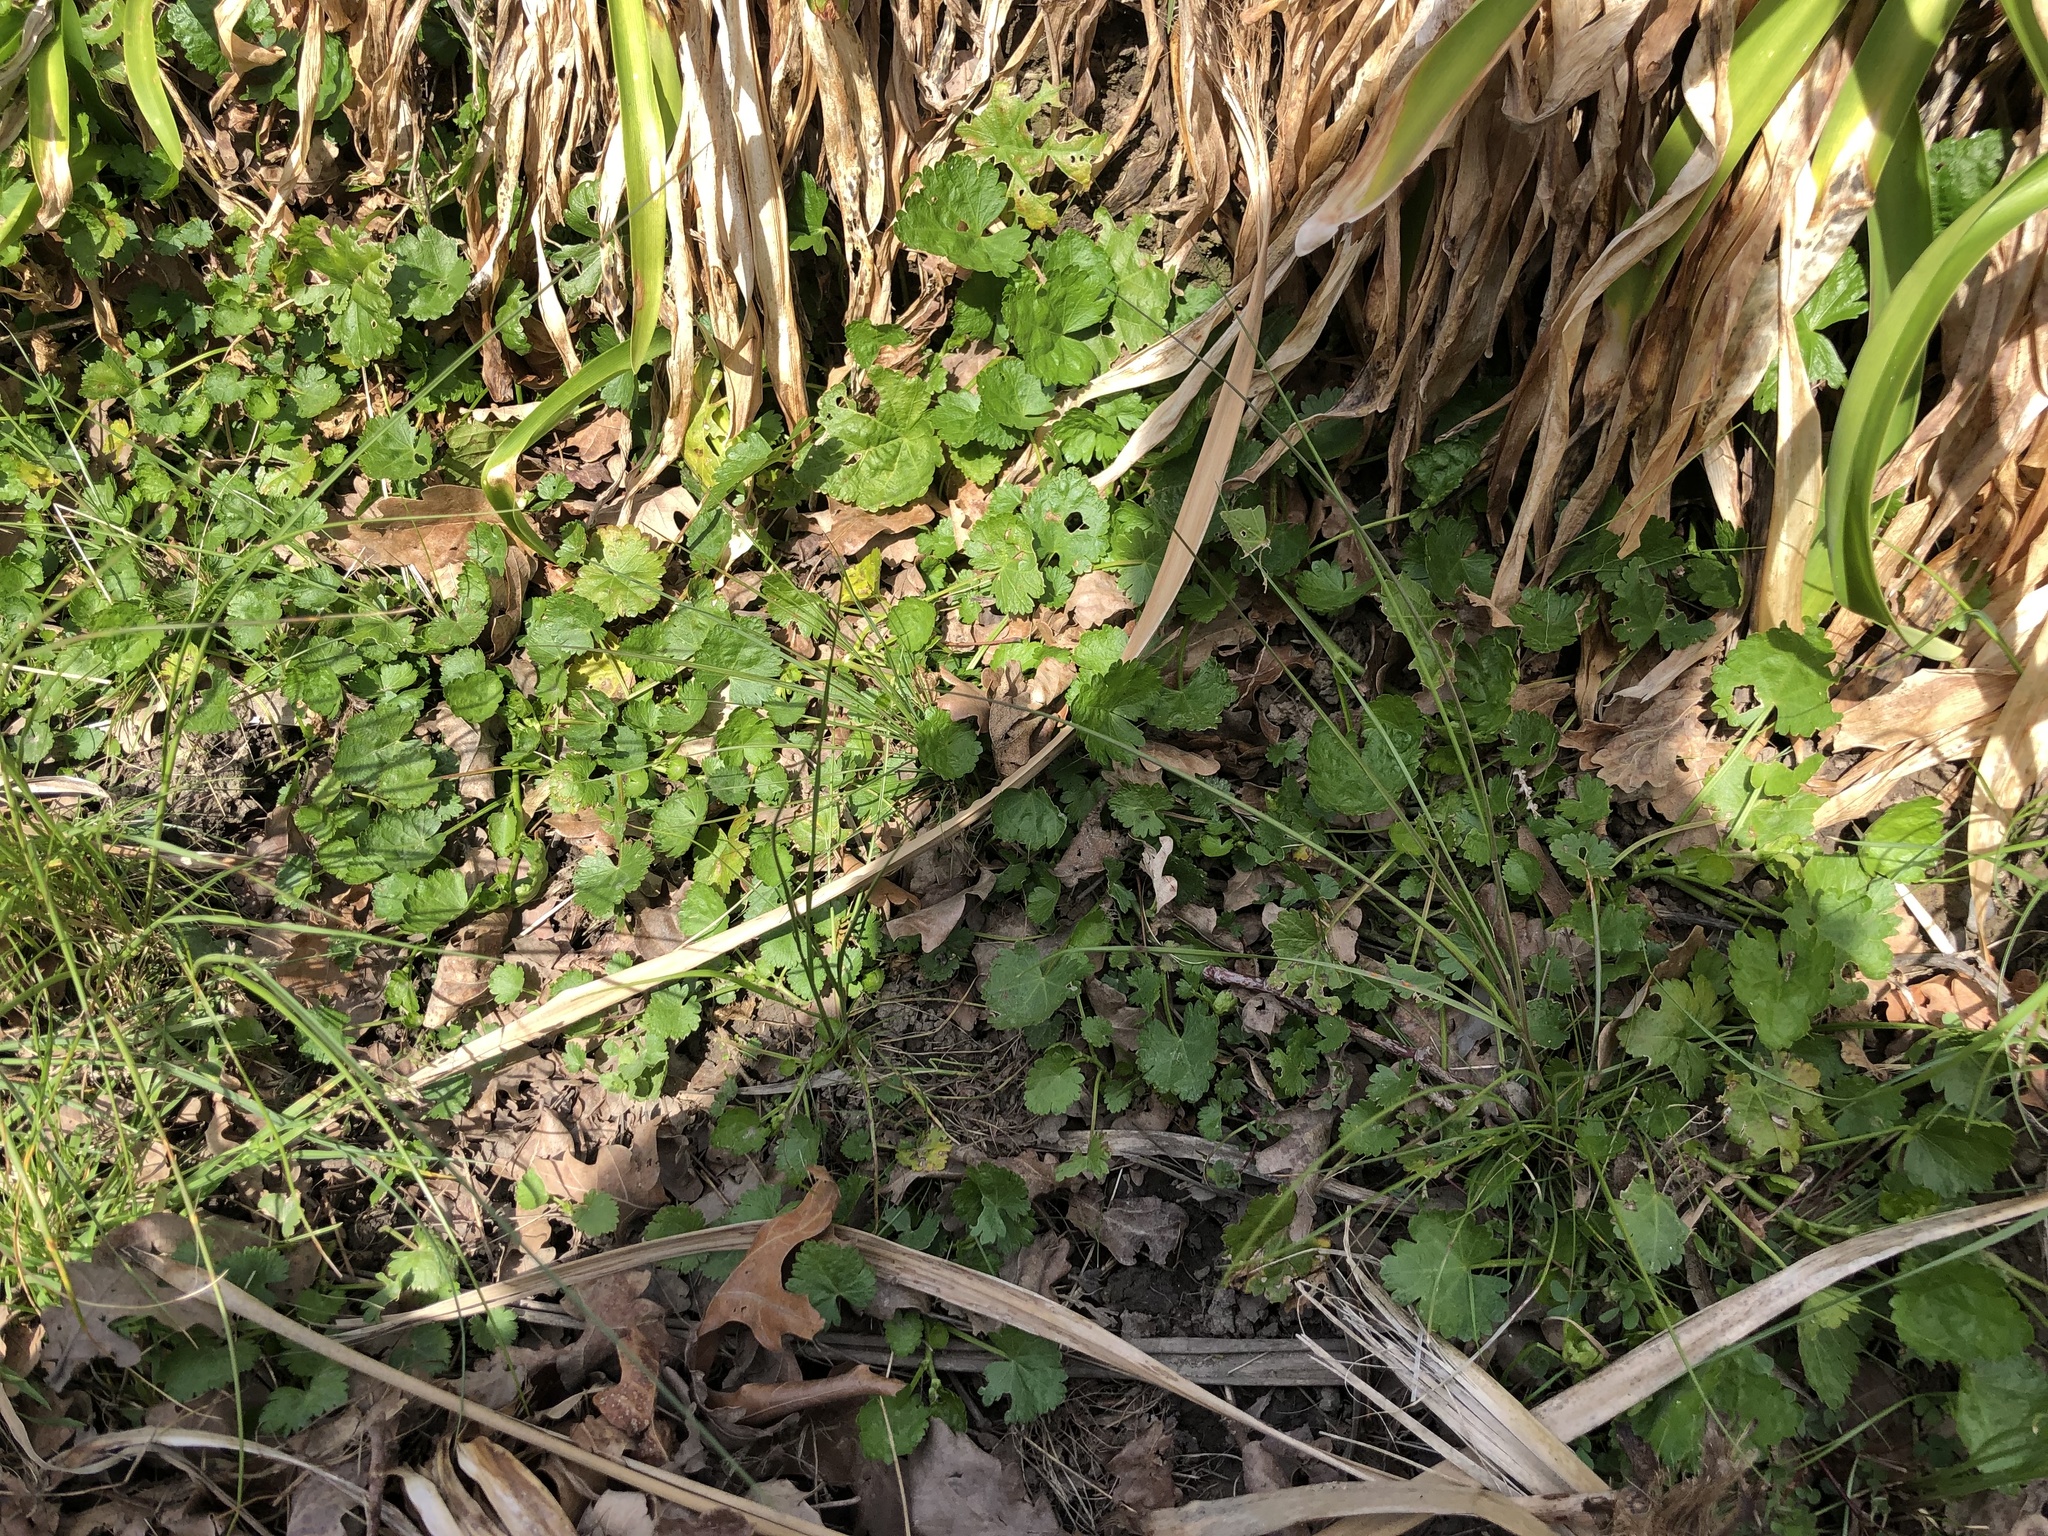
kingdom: Plantae
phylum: Tracheophyta
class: Magnoliopsida
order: Malvales
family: Malvaceae
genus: Modiola
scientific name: Modiola caroliniana
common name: Carolina bristlemallow
